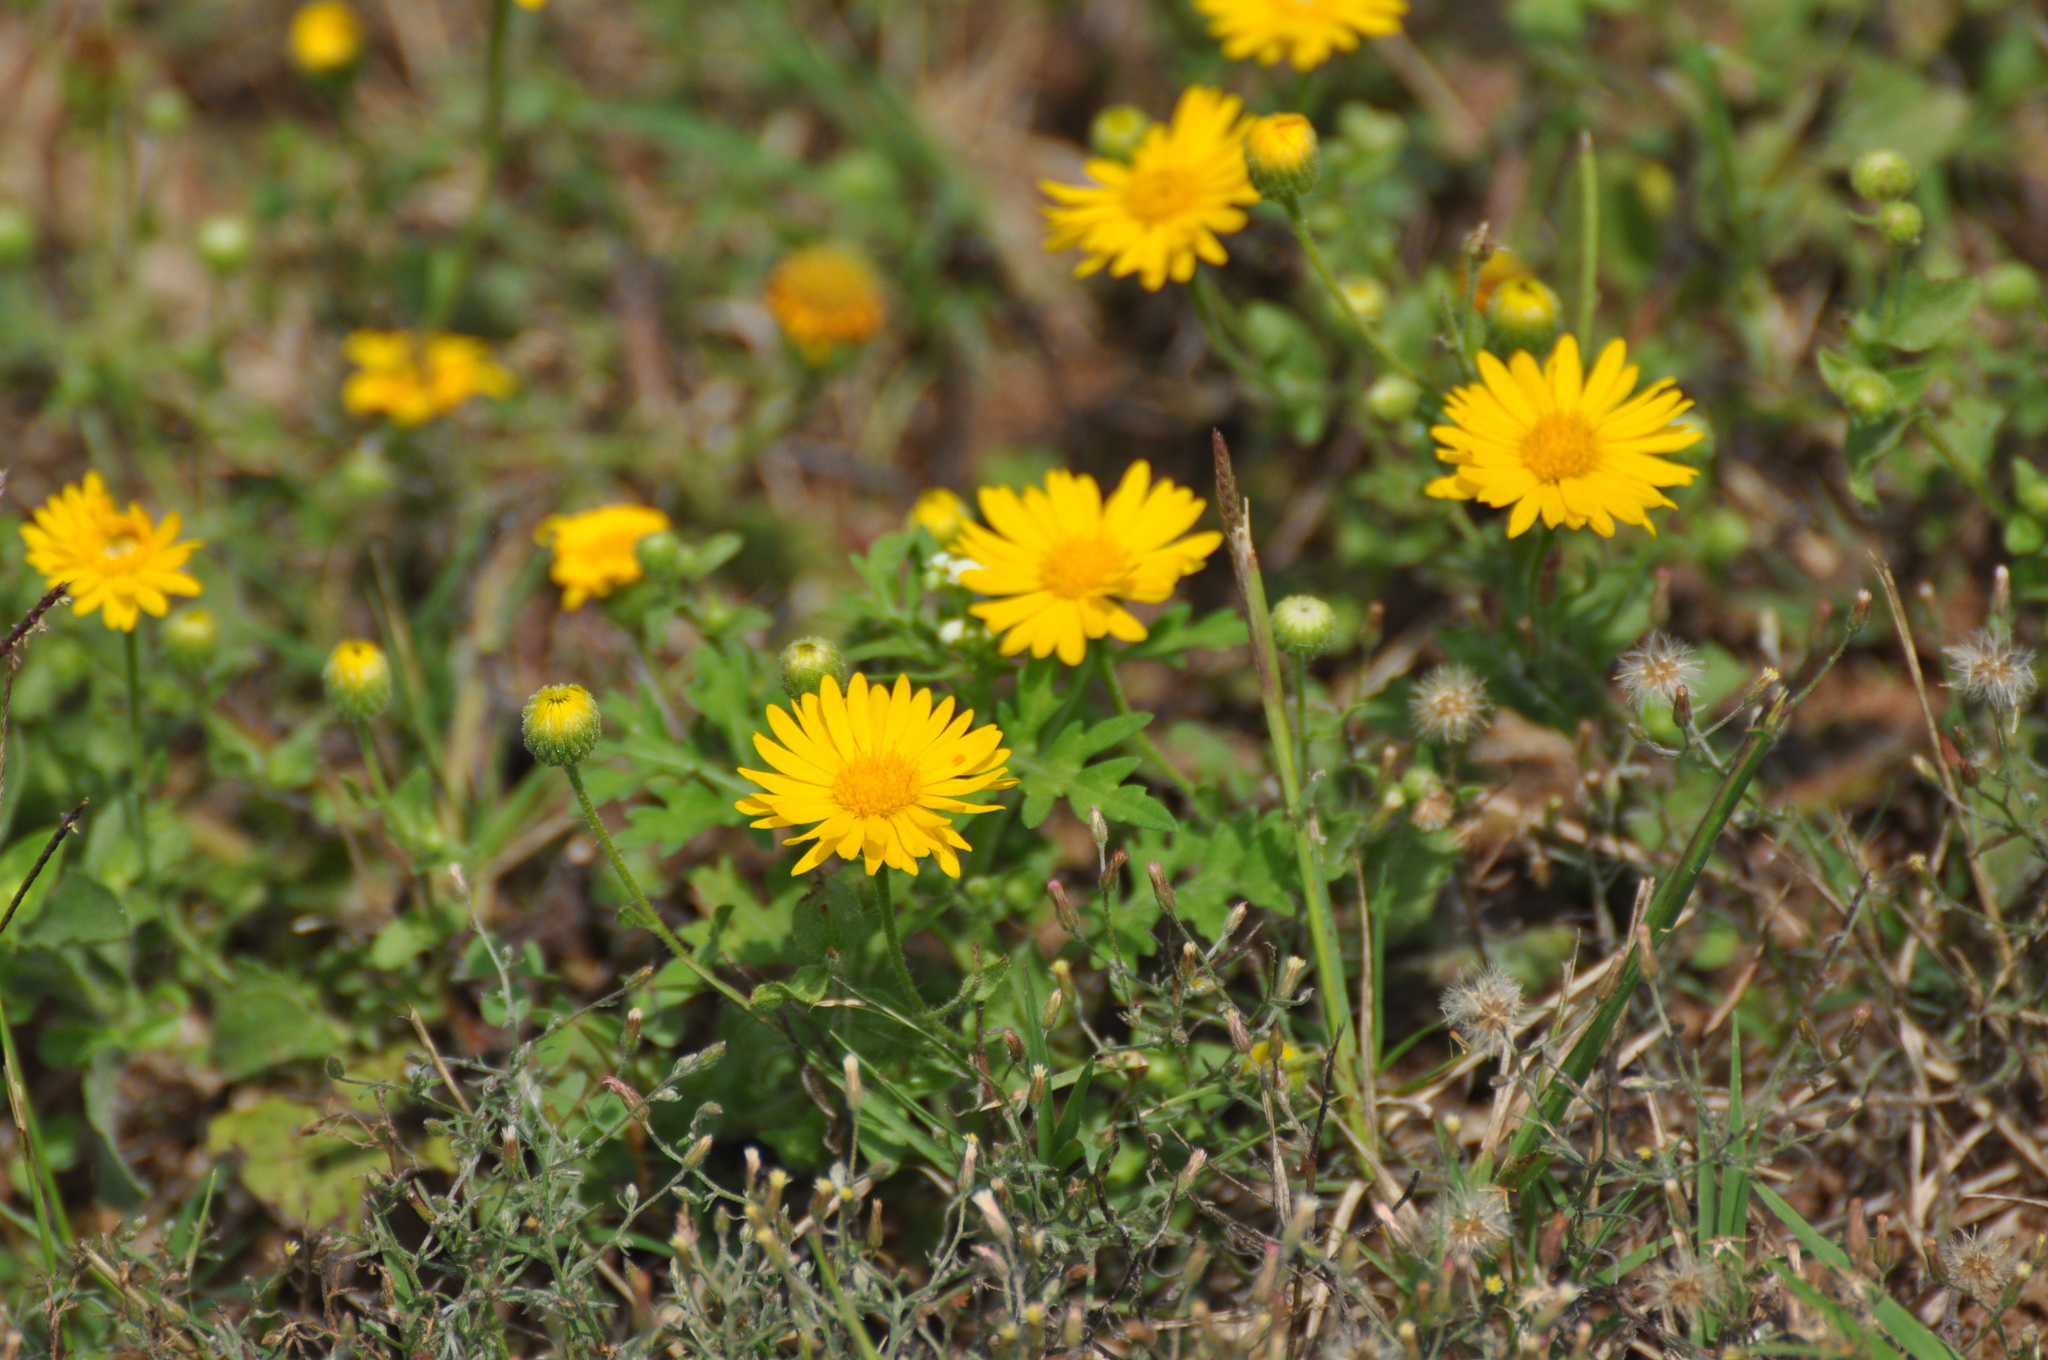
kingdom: Plantae
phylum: Tracheophyta
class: Magnoliopsida
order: Asterales
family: Asteraceae
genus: Heterotheca
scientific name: Heterotheca subaxillaris
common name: Camphorweed
